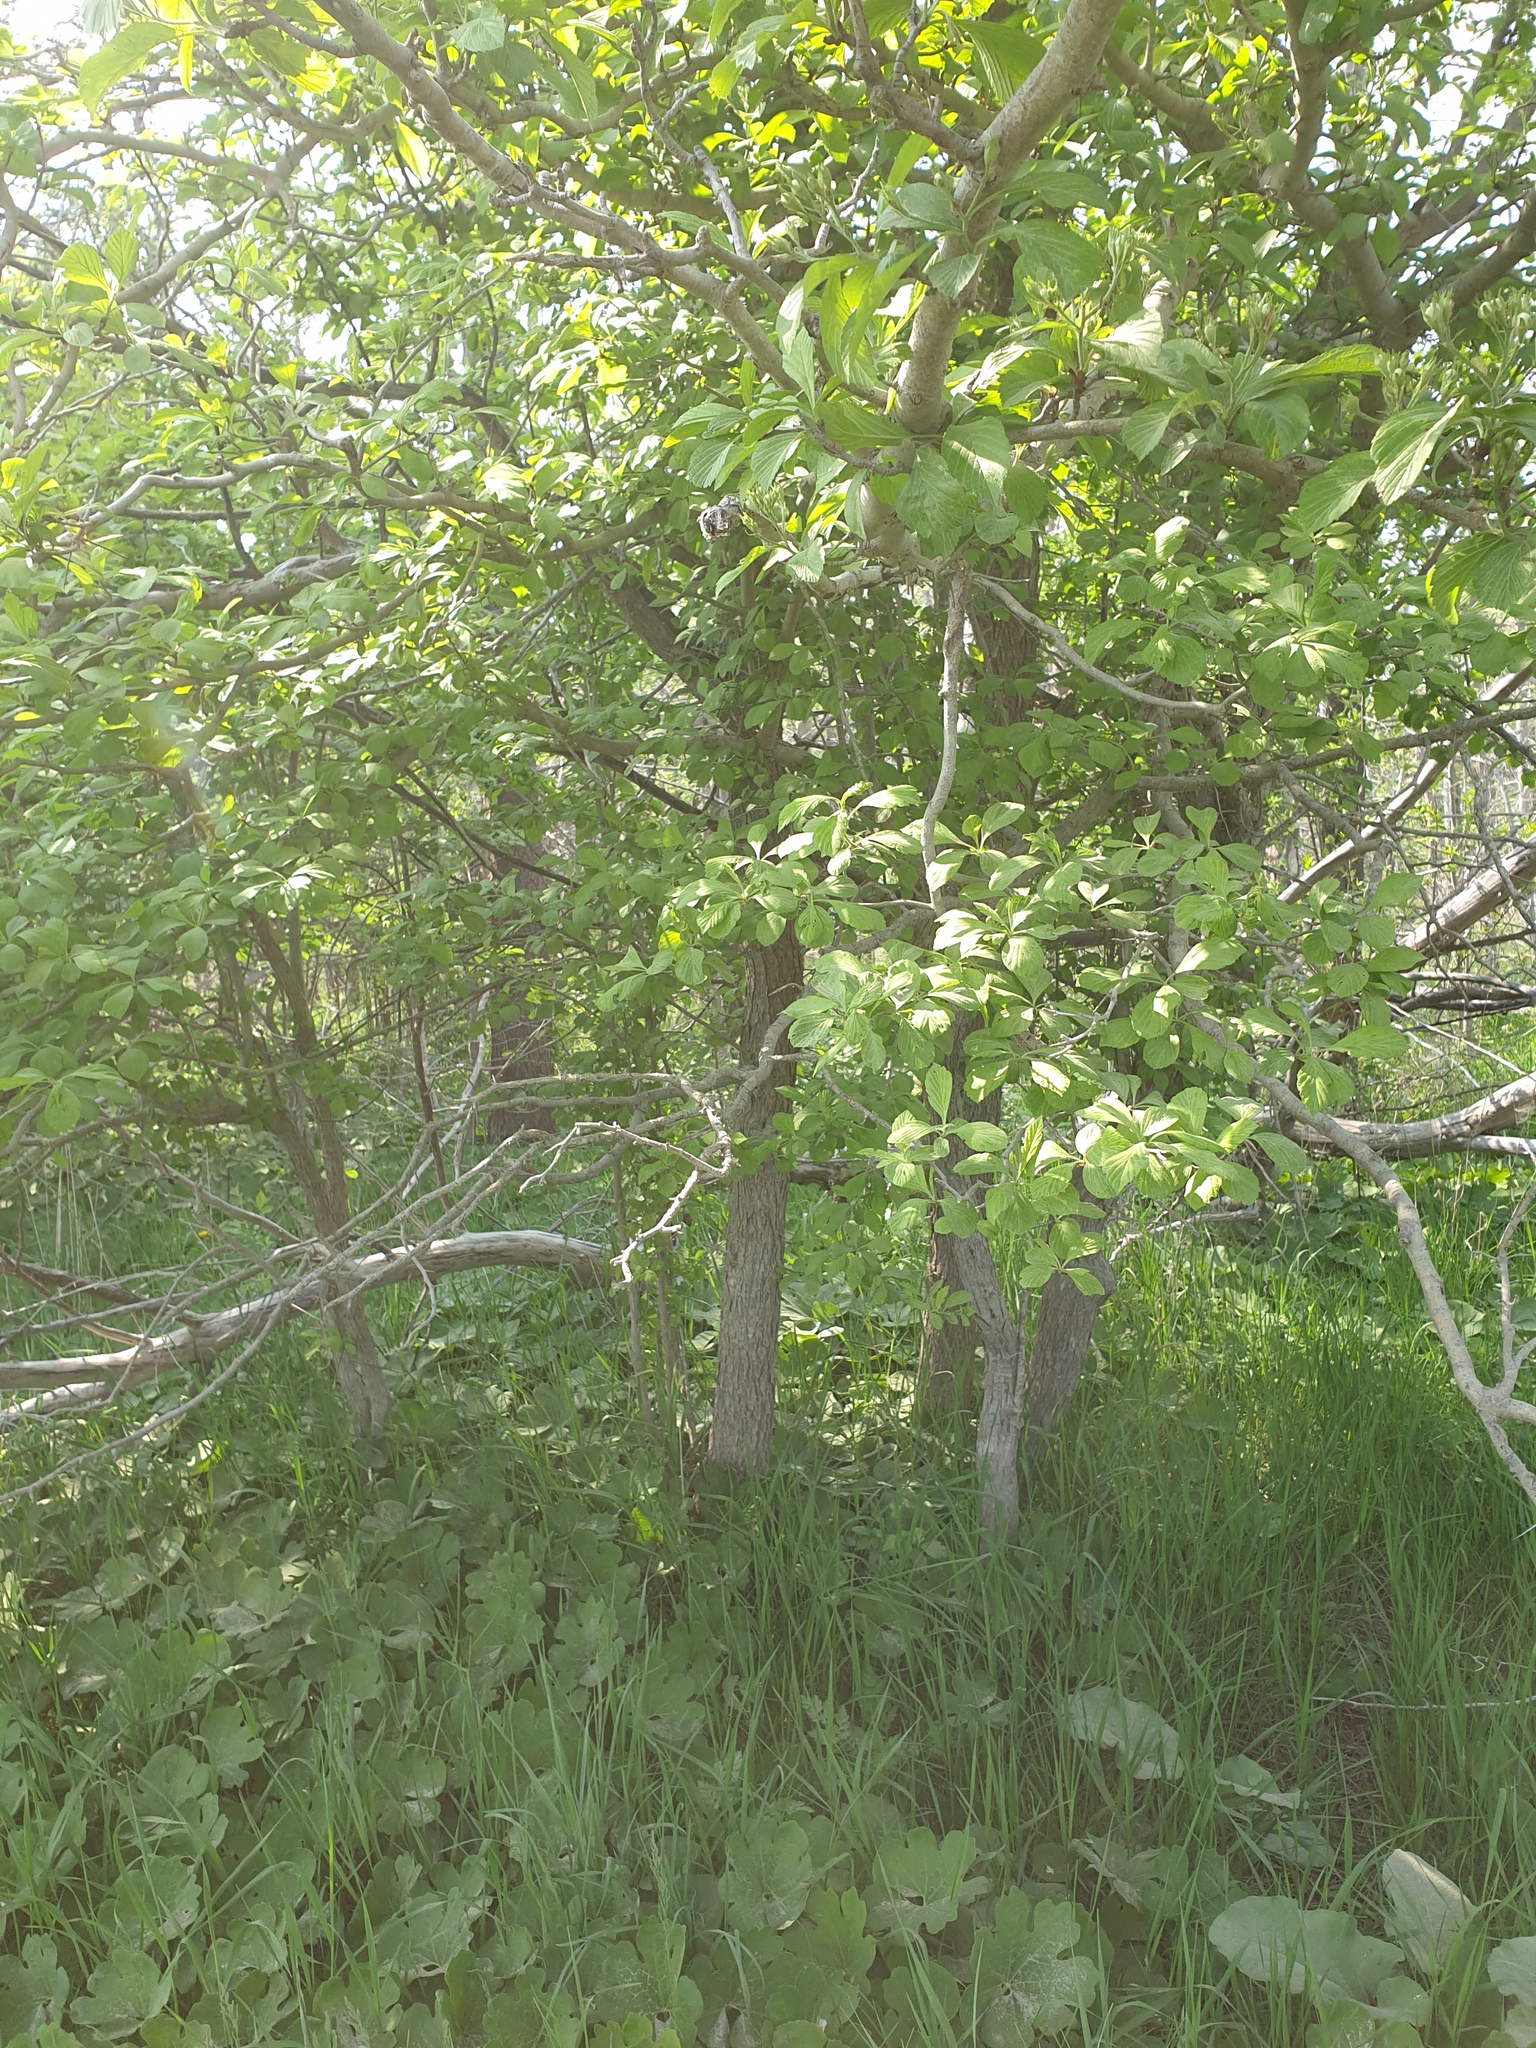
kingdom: Plantae
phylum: Tracheophyta
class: Magnoliopsida
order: Rosales
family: Rosaceae
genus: Crataegus
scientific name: Crataegus punctata
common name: Dotted hawthorn
